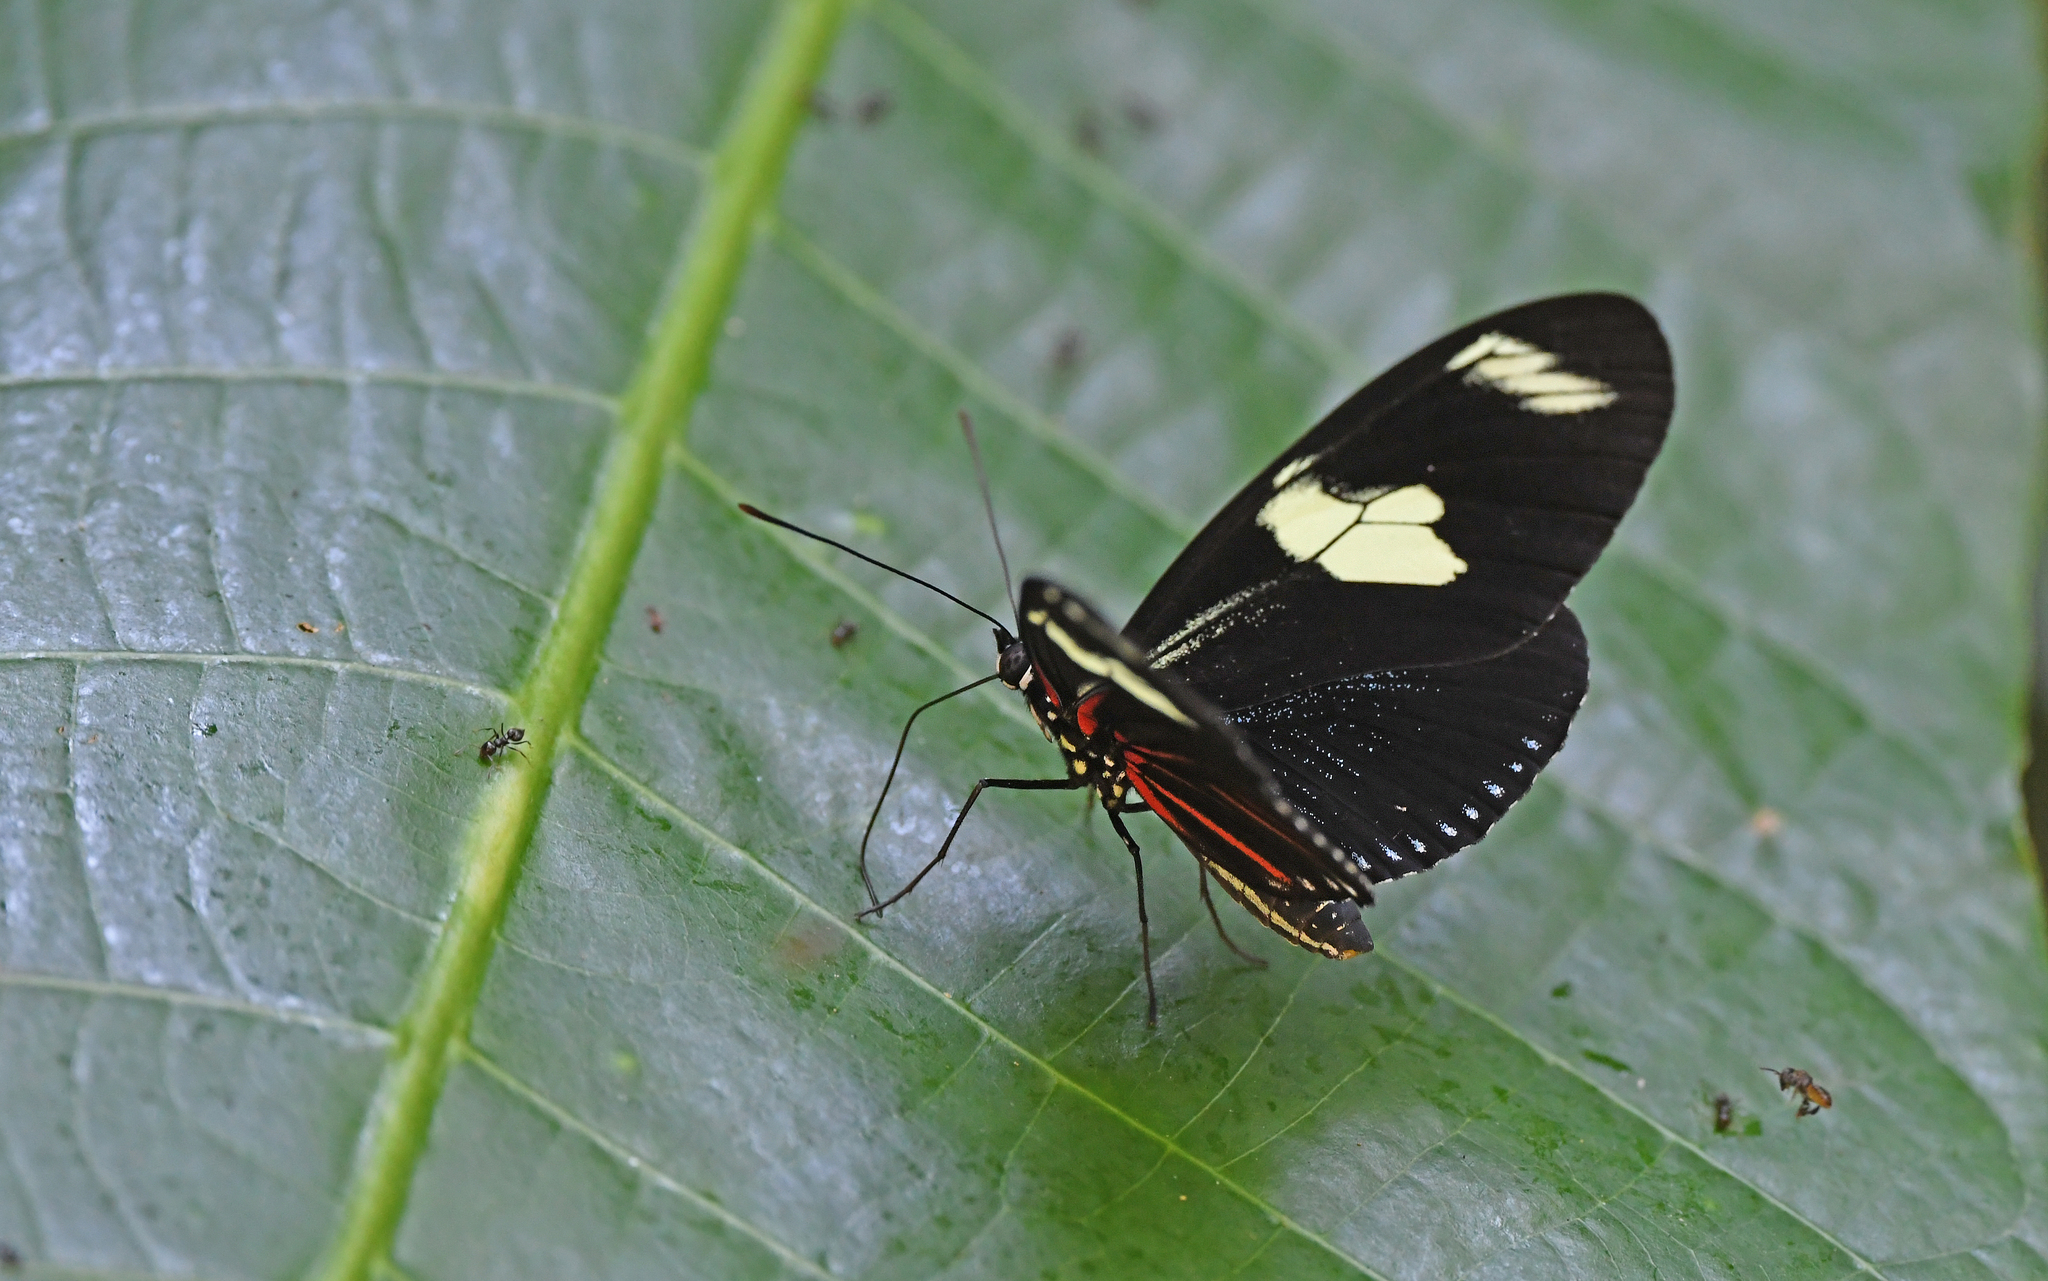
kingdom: Animalia
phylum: Arthropoda
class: Insecta
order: Lepidoptera
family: Nymphalidae
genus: Heliconius
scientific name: Heliconius doris
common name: Doris longwing
